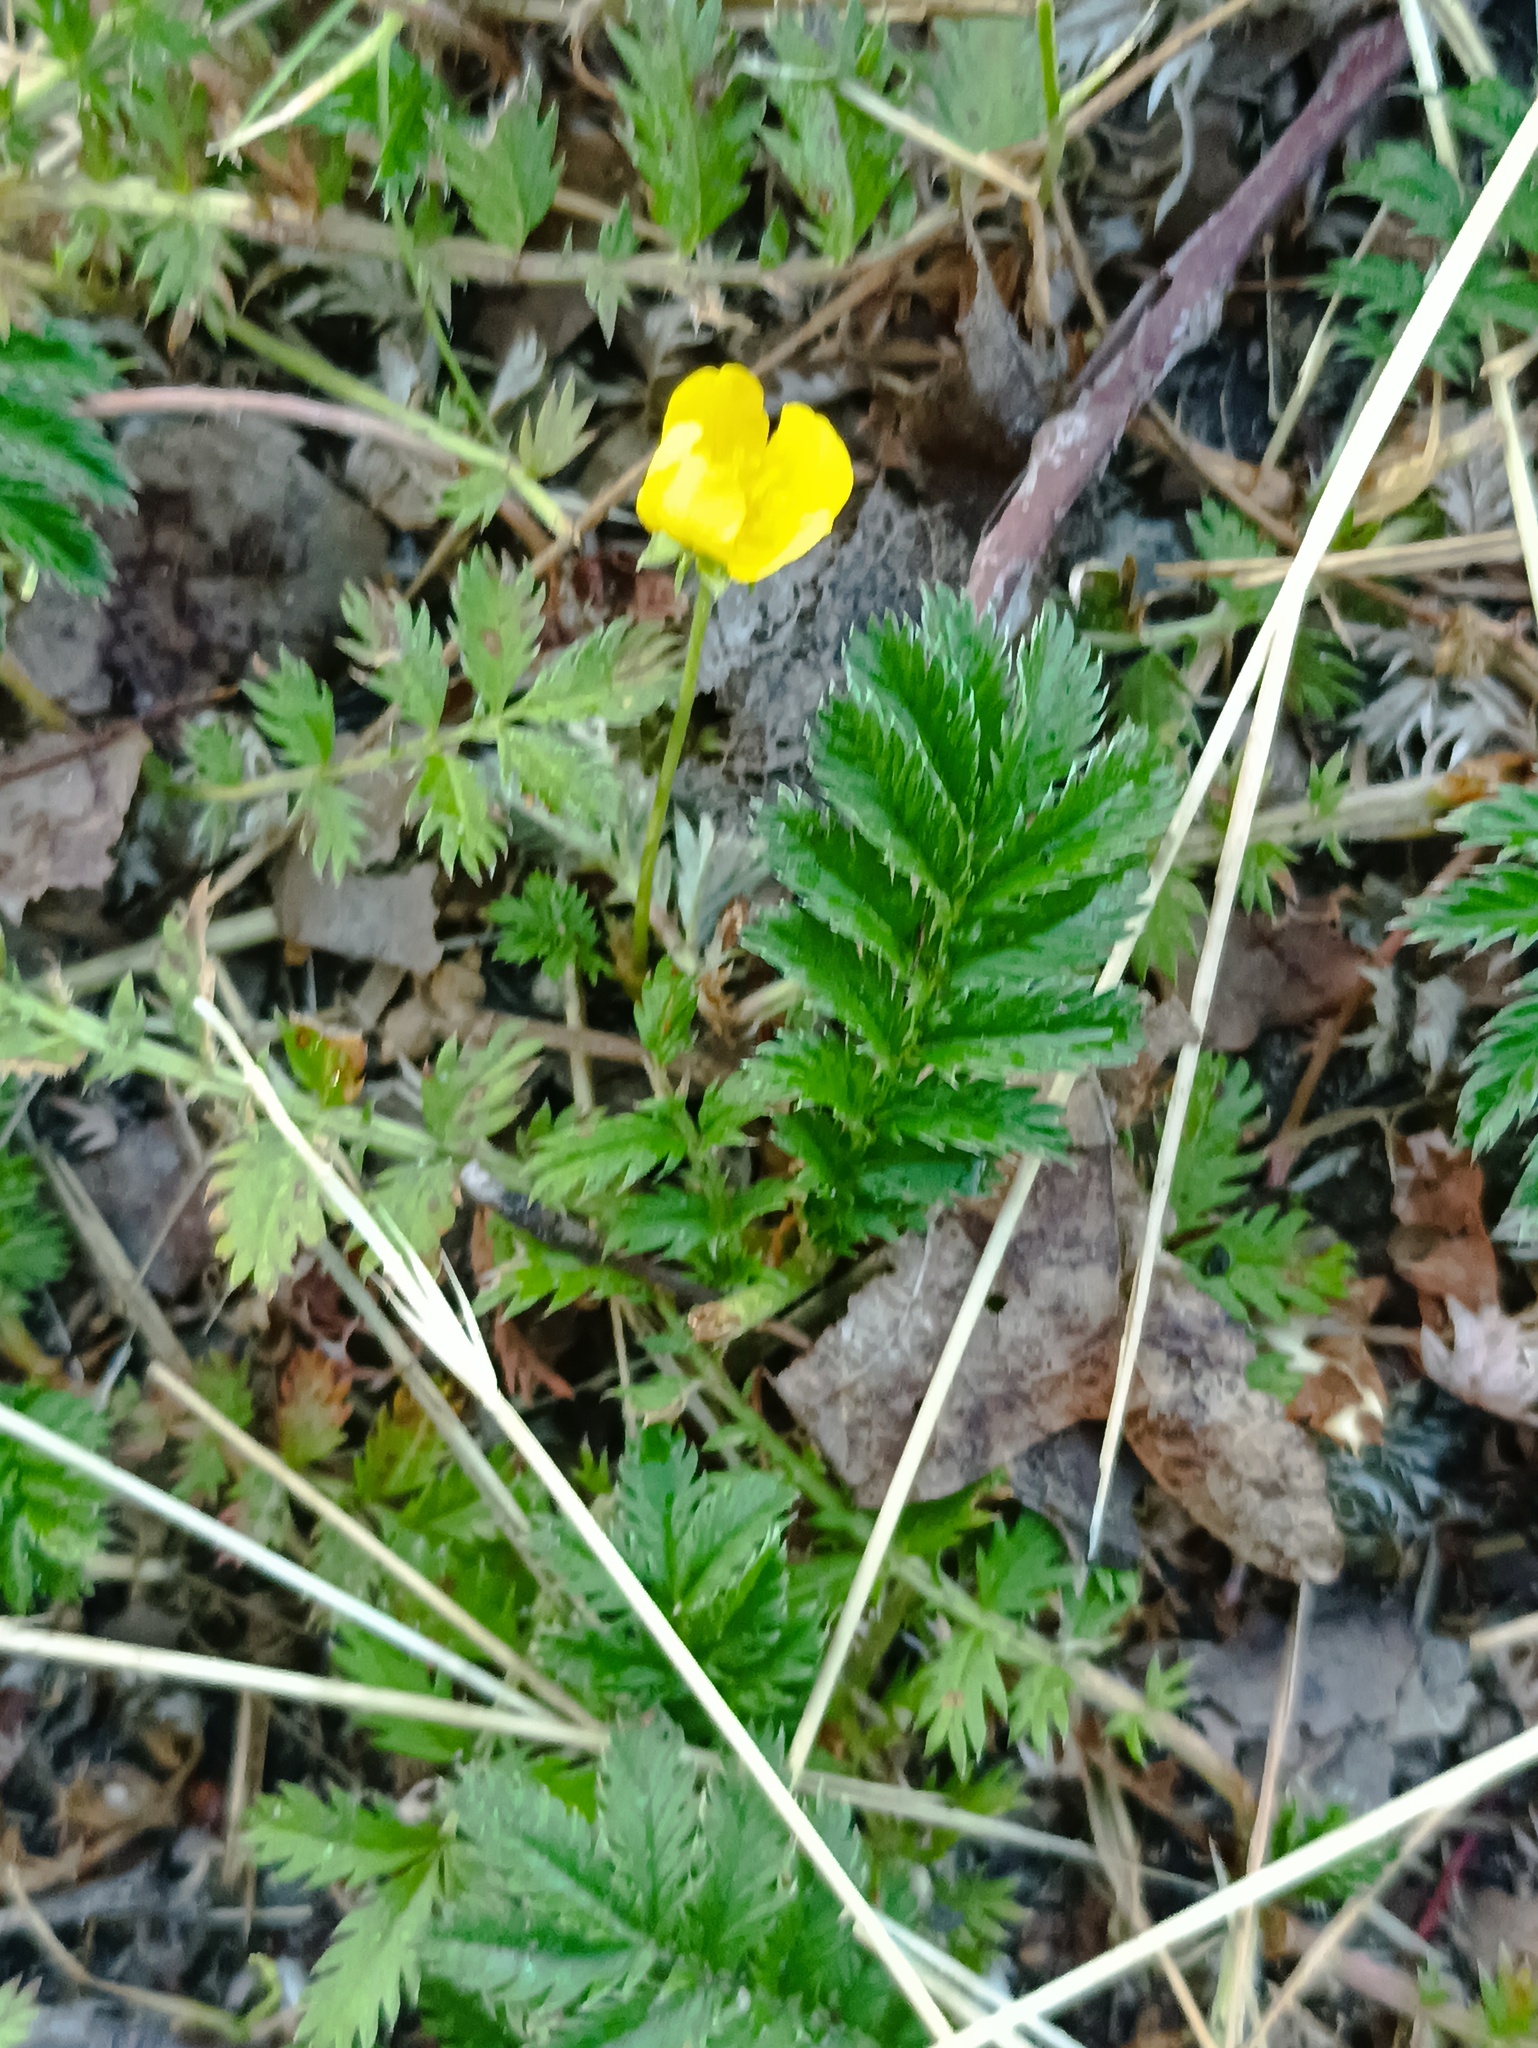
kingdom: Plantae
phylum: Tracheophyta
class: Magnoliopsida
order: Rosales
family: Rosaceae
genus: Argentina
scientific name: Argentina anserina
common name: Common silverweed
